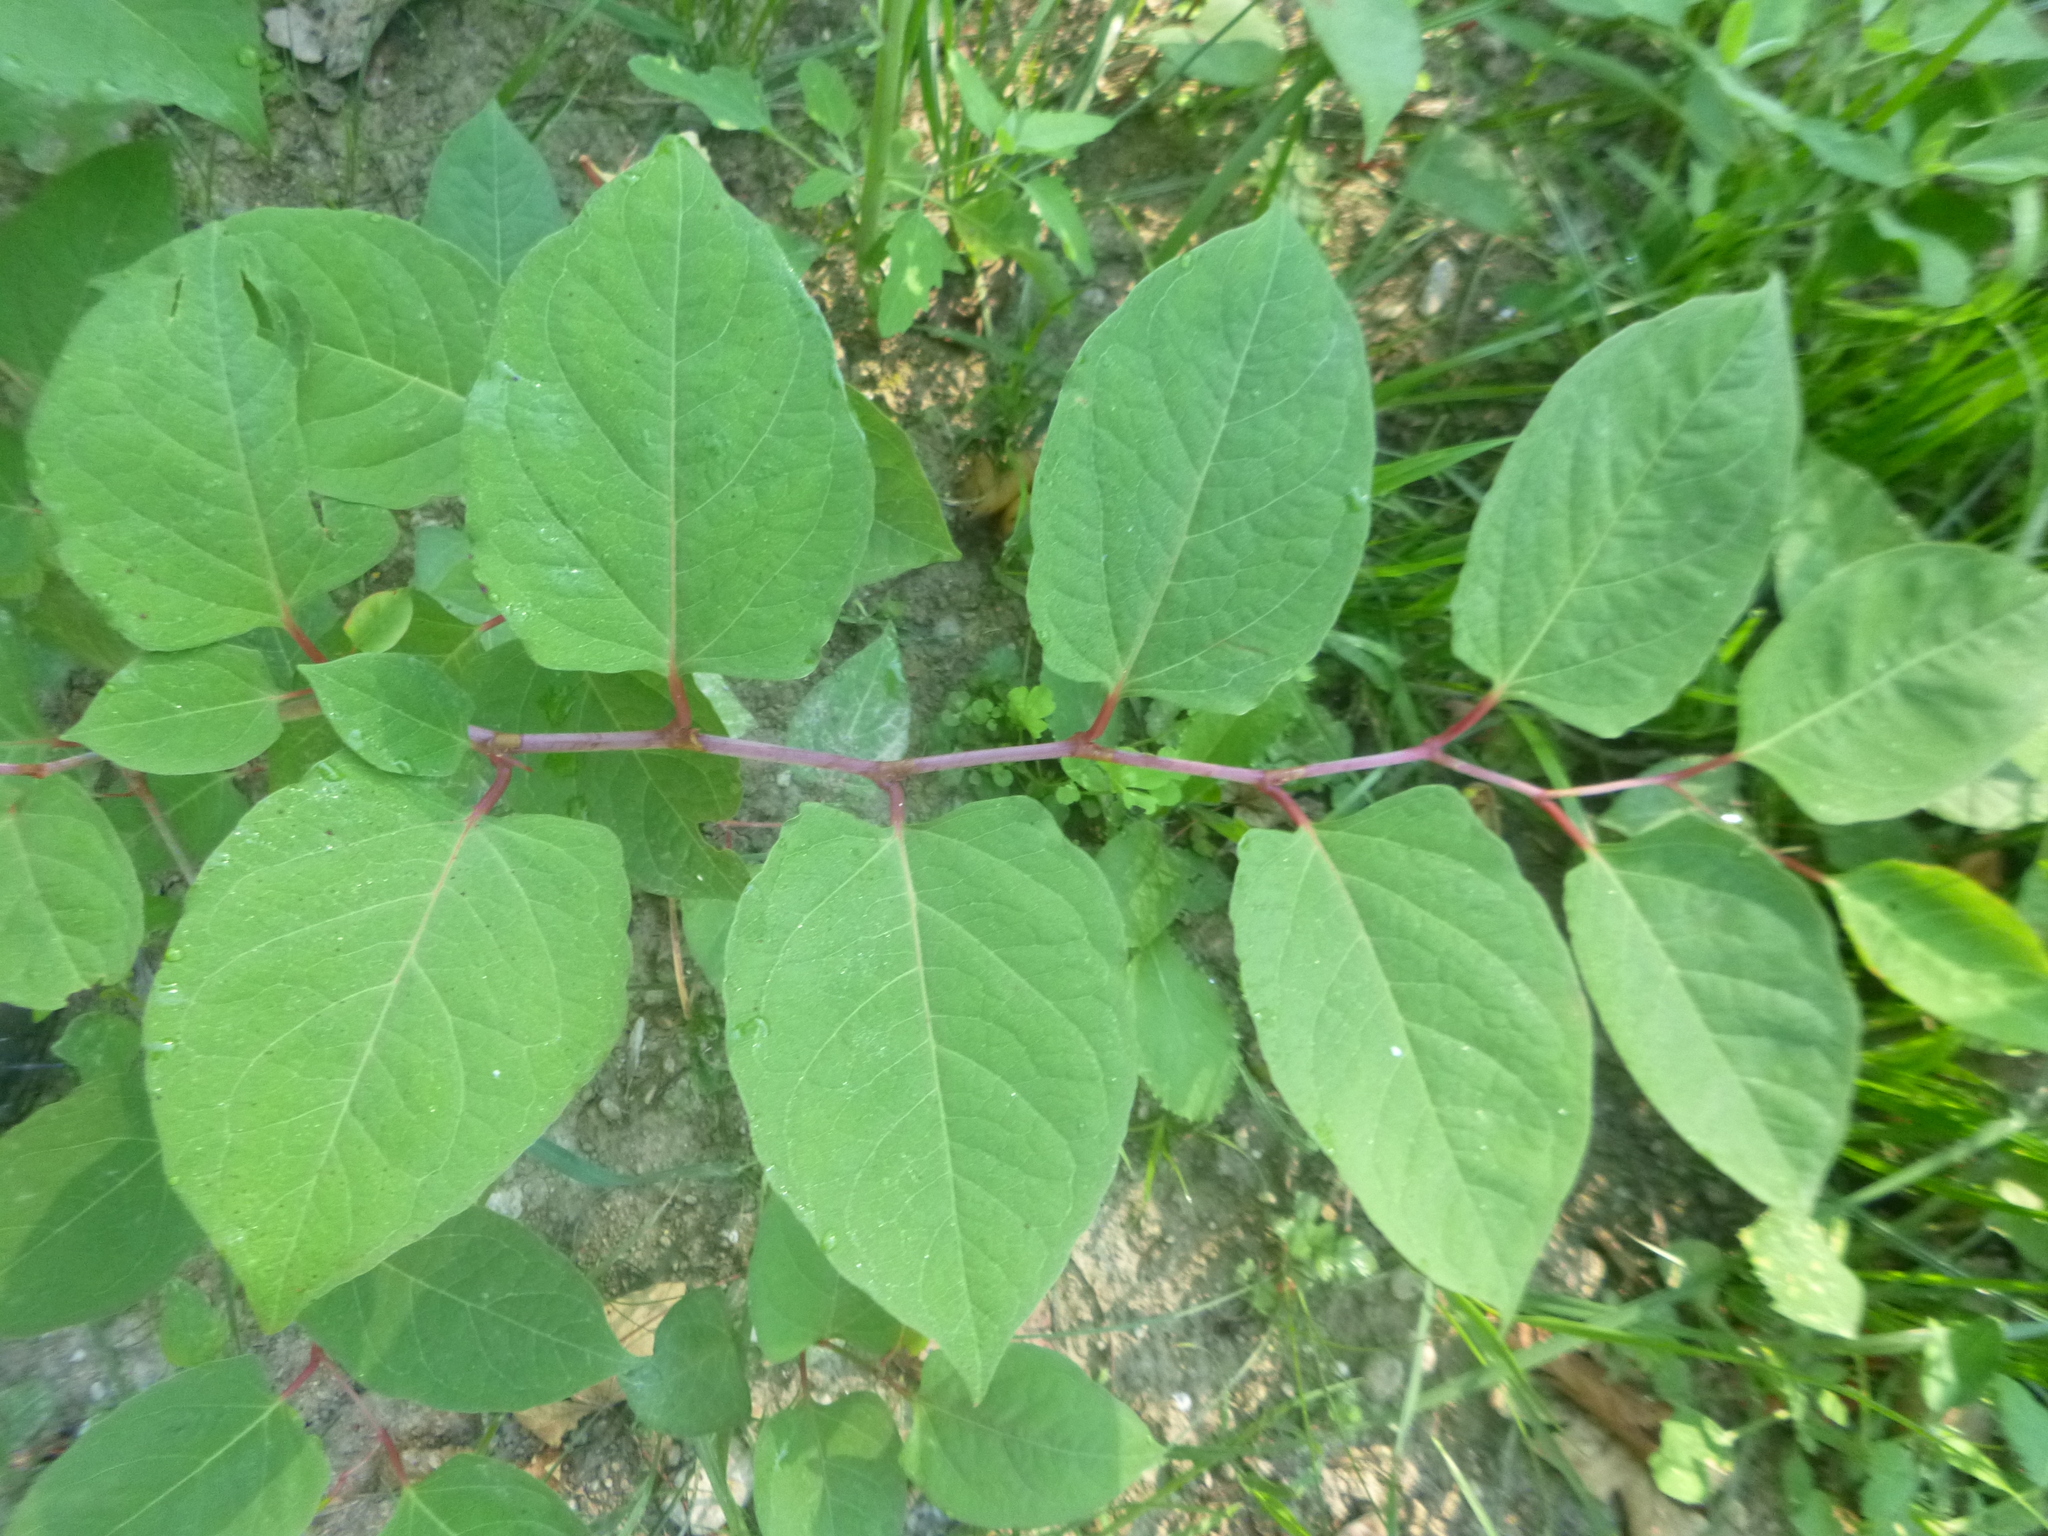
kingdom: Plantae
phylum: Tracheophyta
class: Magnoliopsida
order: Caryophyllales
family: Polygonaceae
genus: Reynoutria
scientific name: Reynoutria japonica
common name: Japanese knotweed
